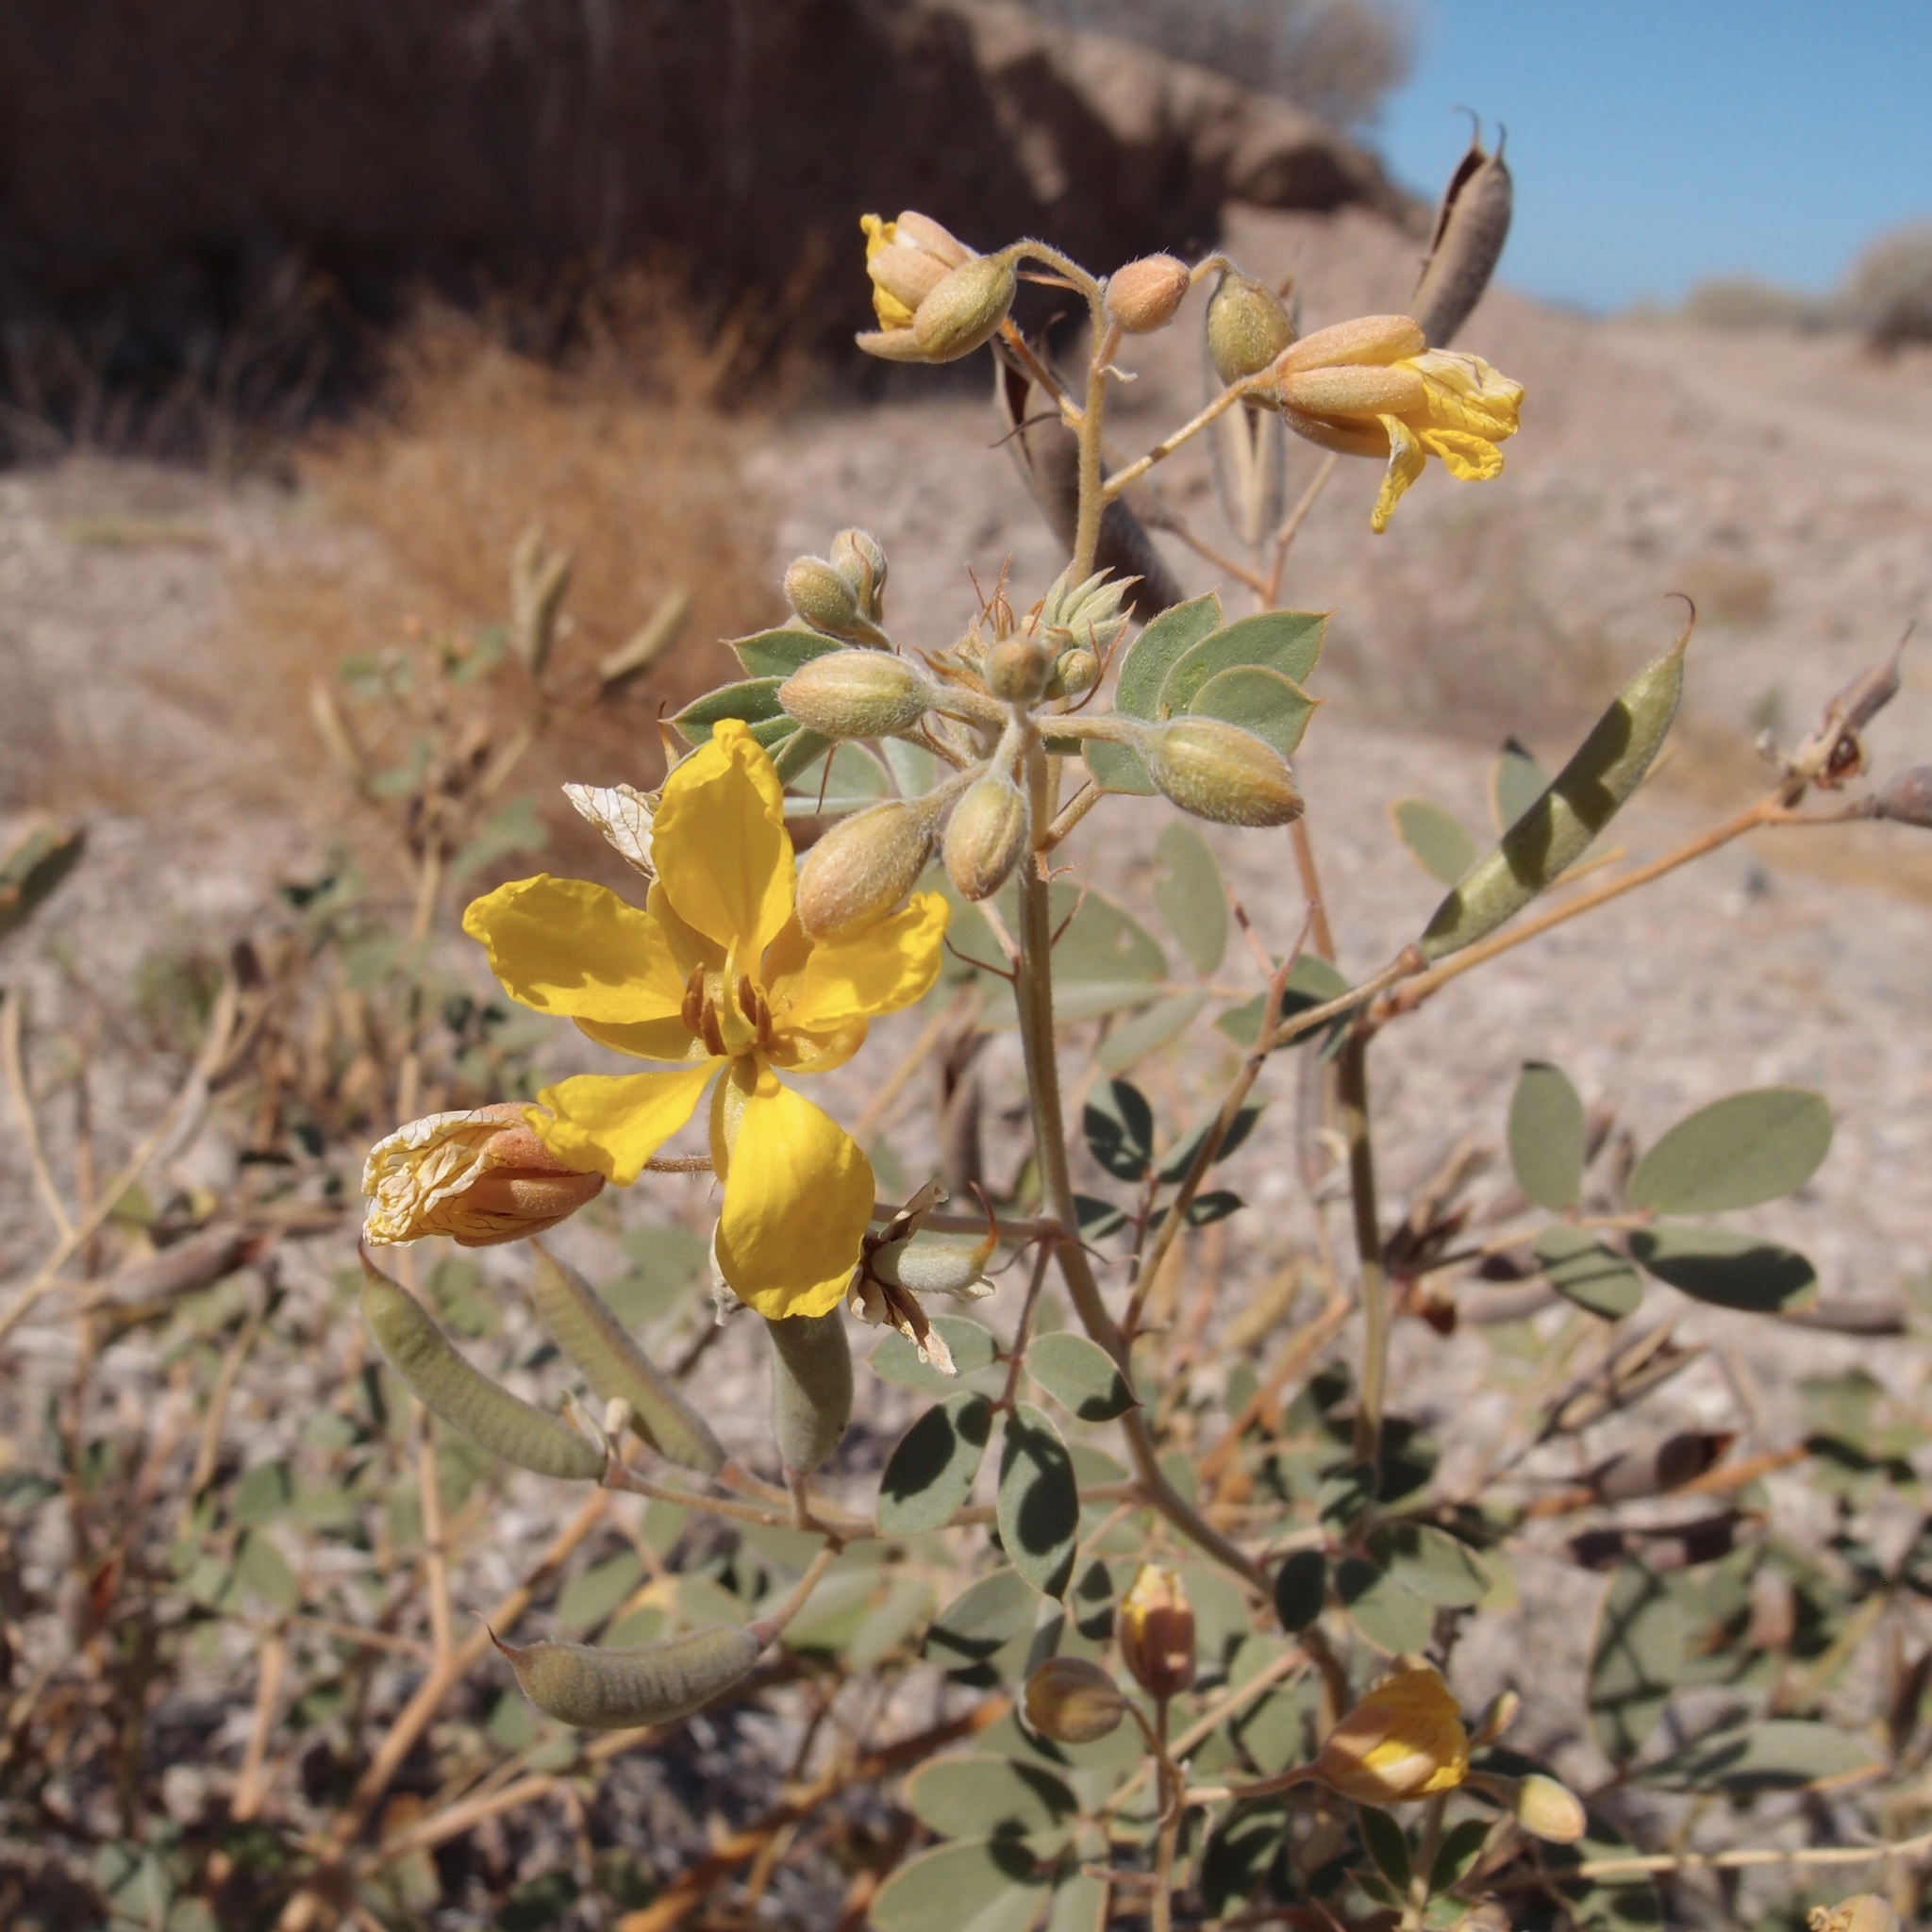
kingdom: Plantae
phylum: Tracheophyta
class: Magnoliopsida
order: Fabales
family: Fabaceae
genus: Senna
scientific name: Senna covesii
